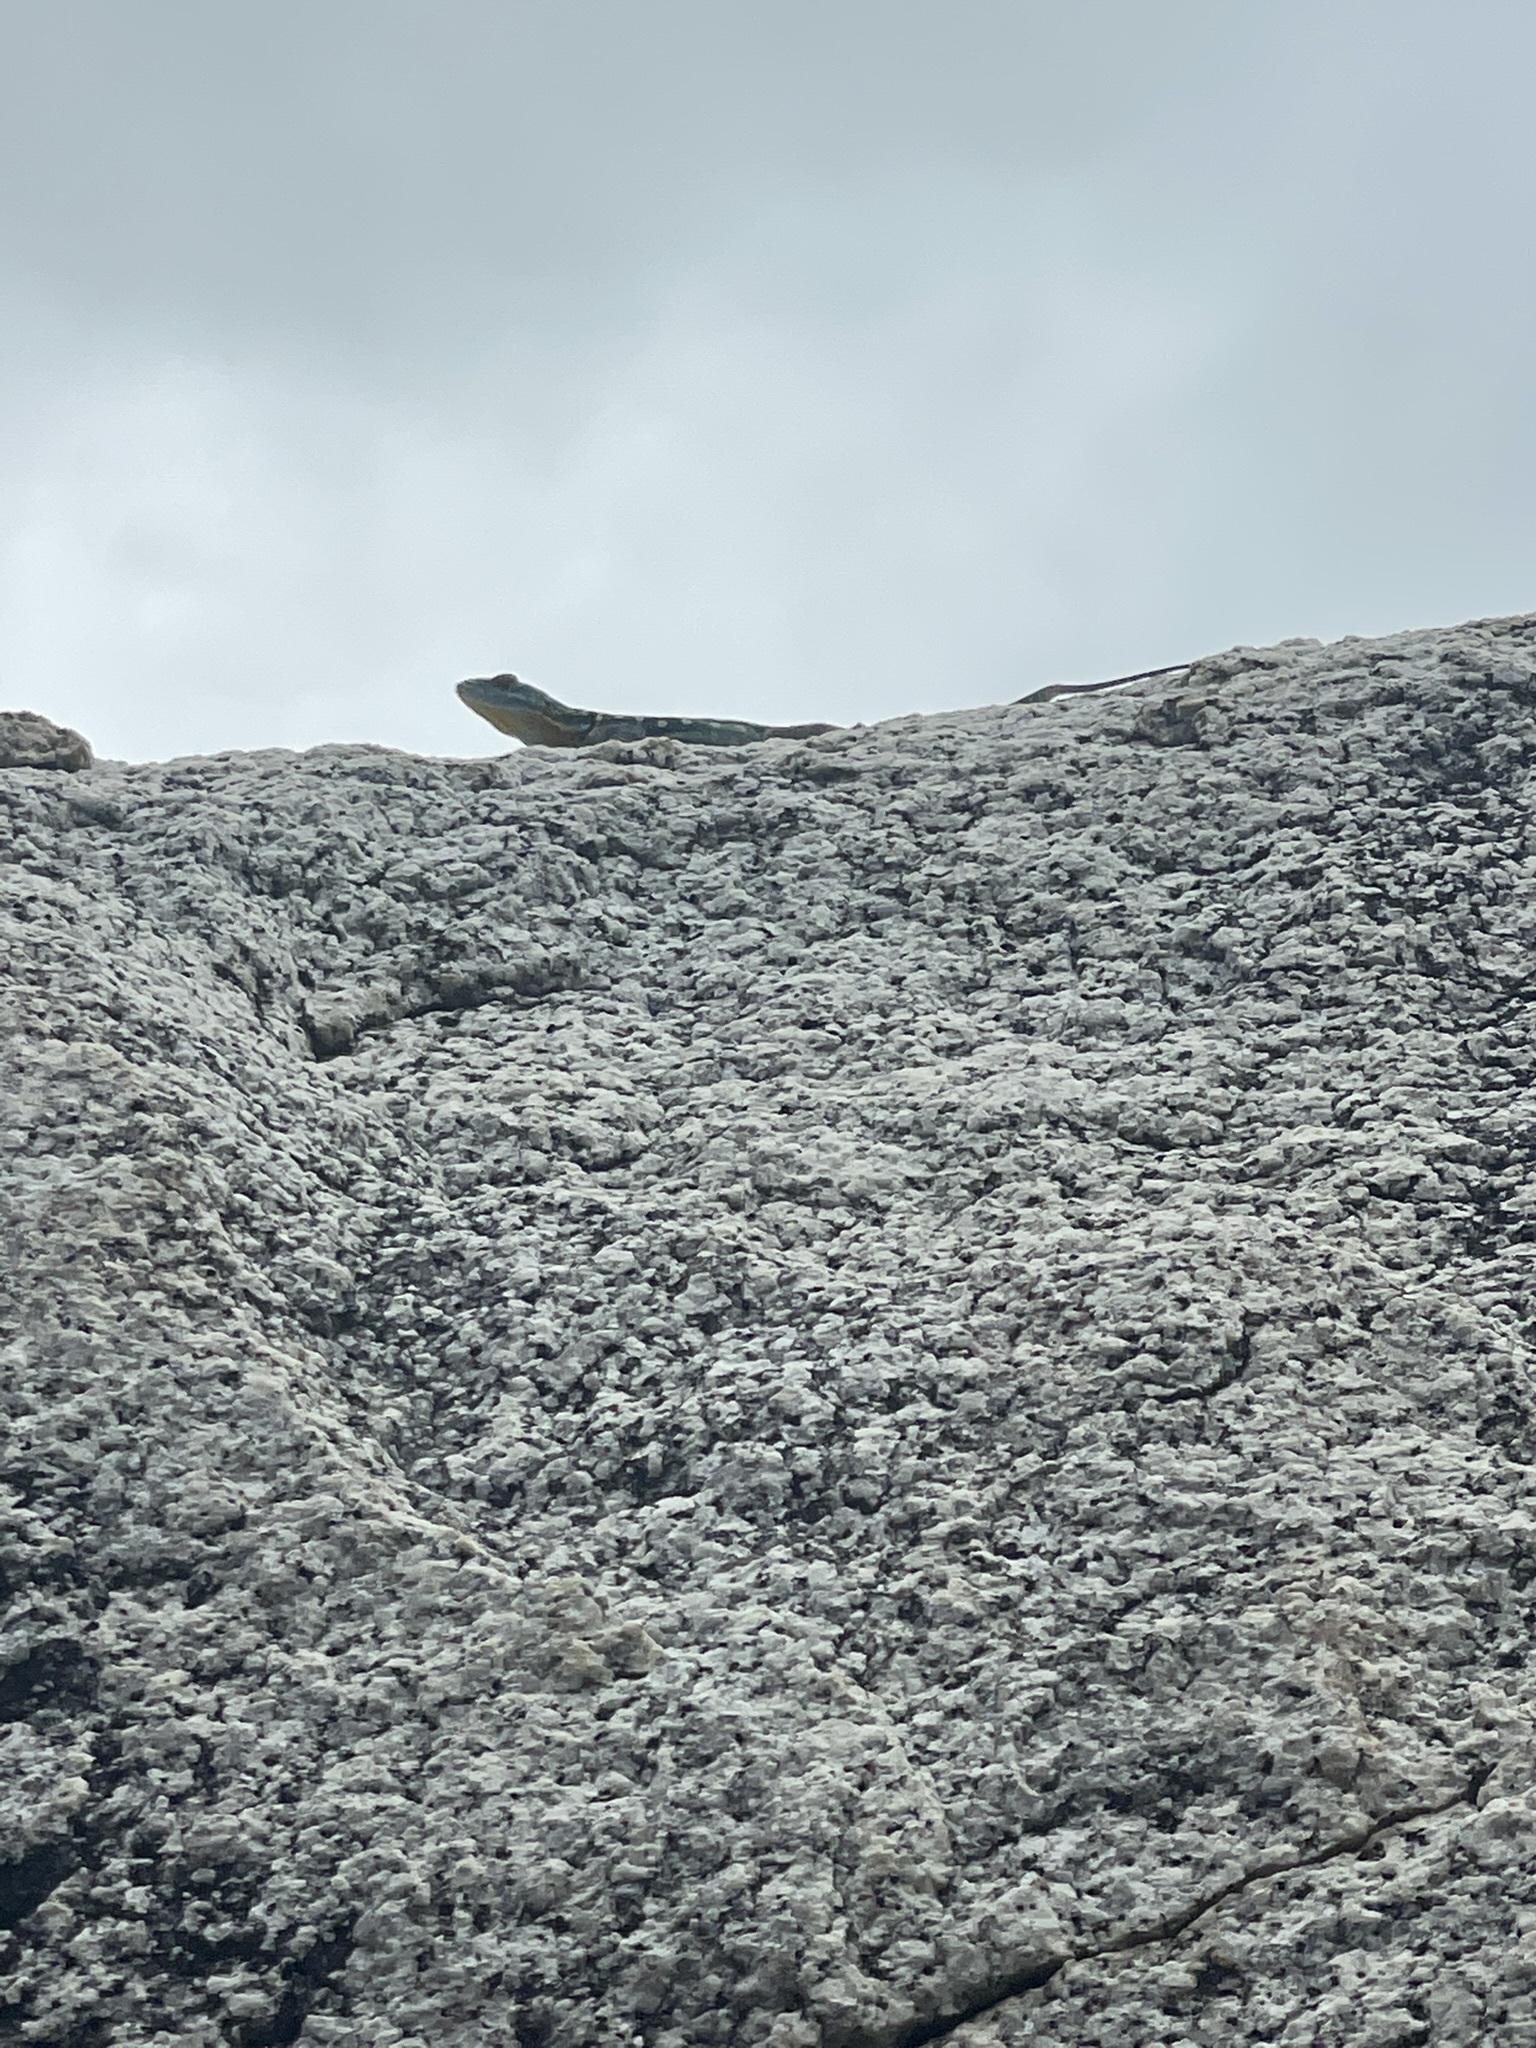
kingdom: Animalia
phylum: Chordata
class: Squamata
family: Phrynosomatidae
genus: Petrosaurus
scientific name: Petrosaurus thalassinus
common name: Baja california rock lizard
